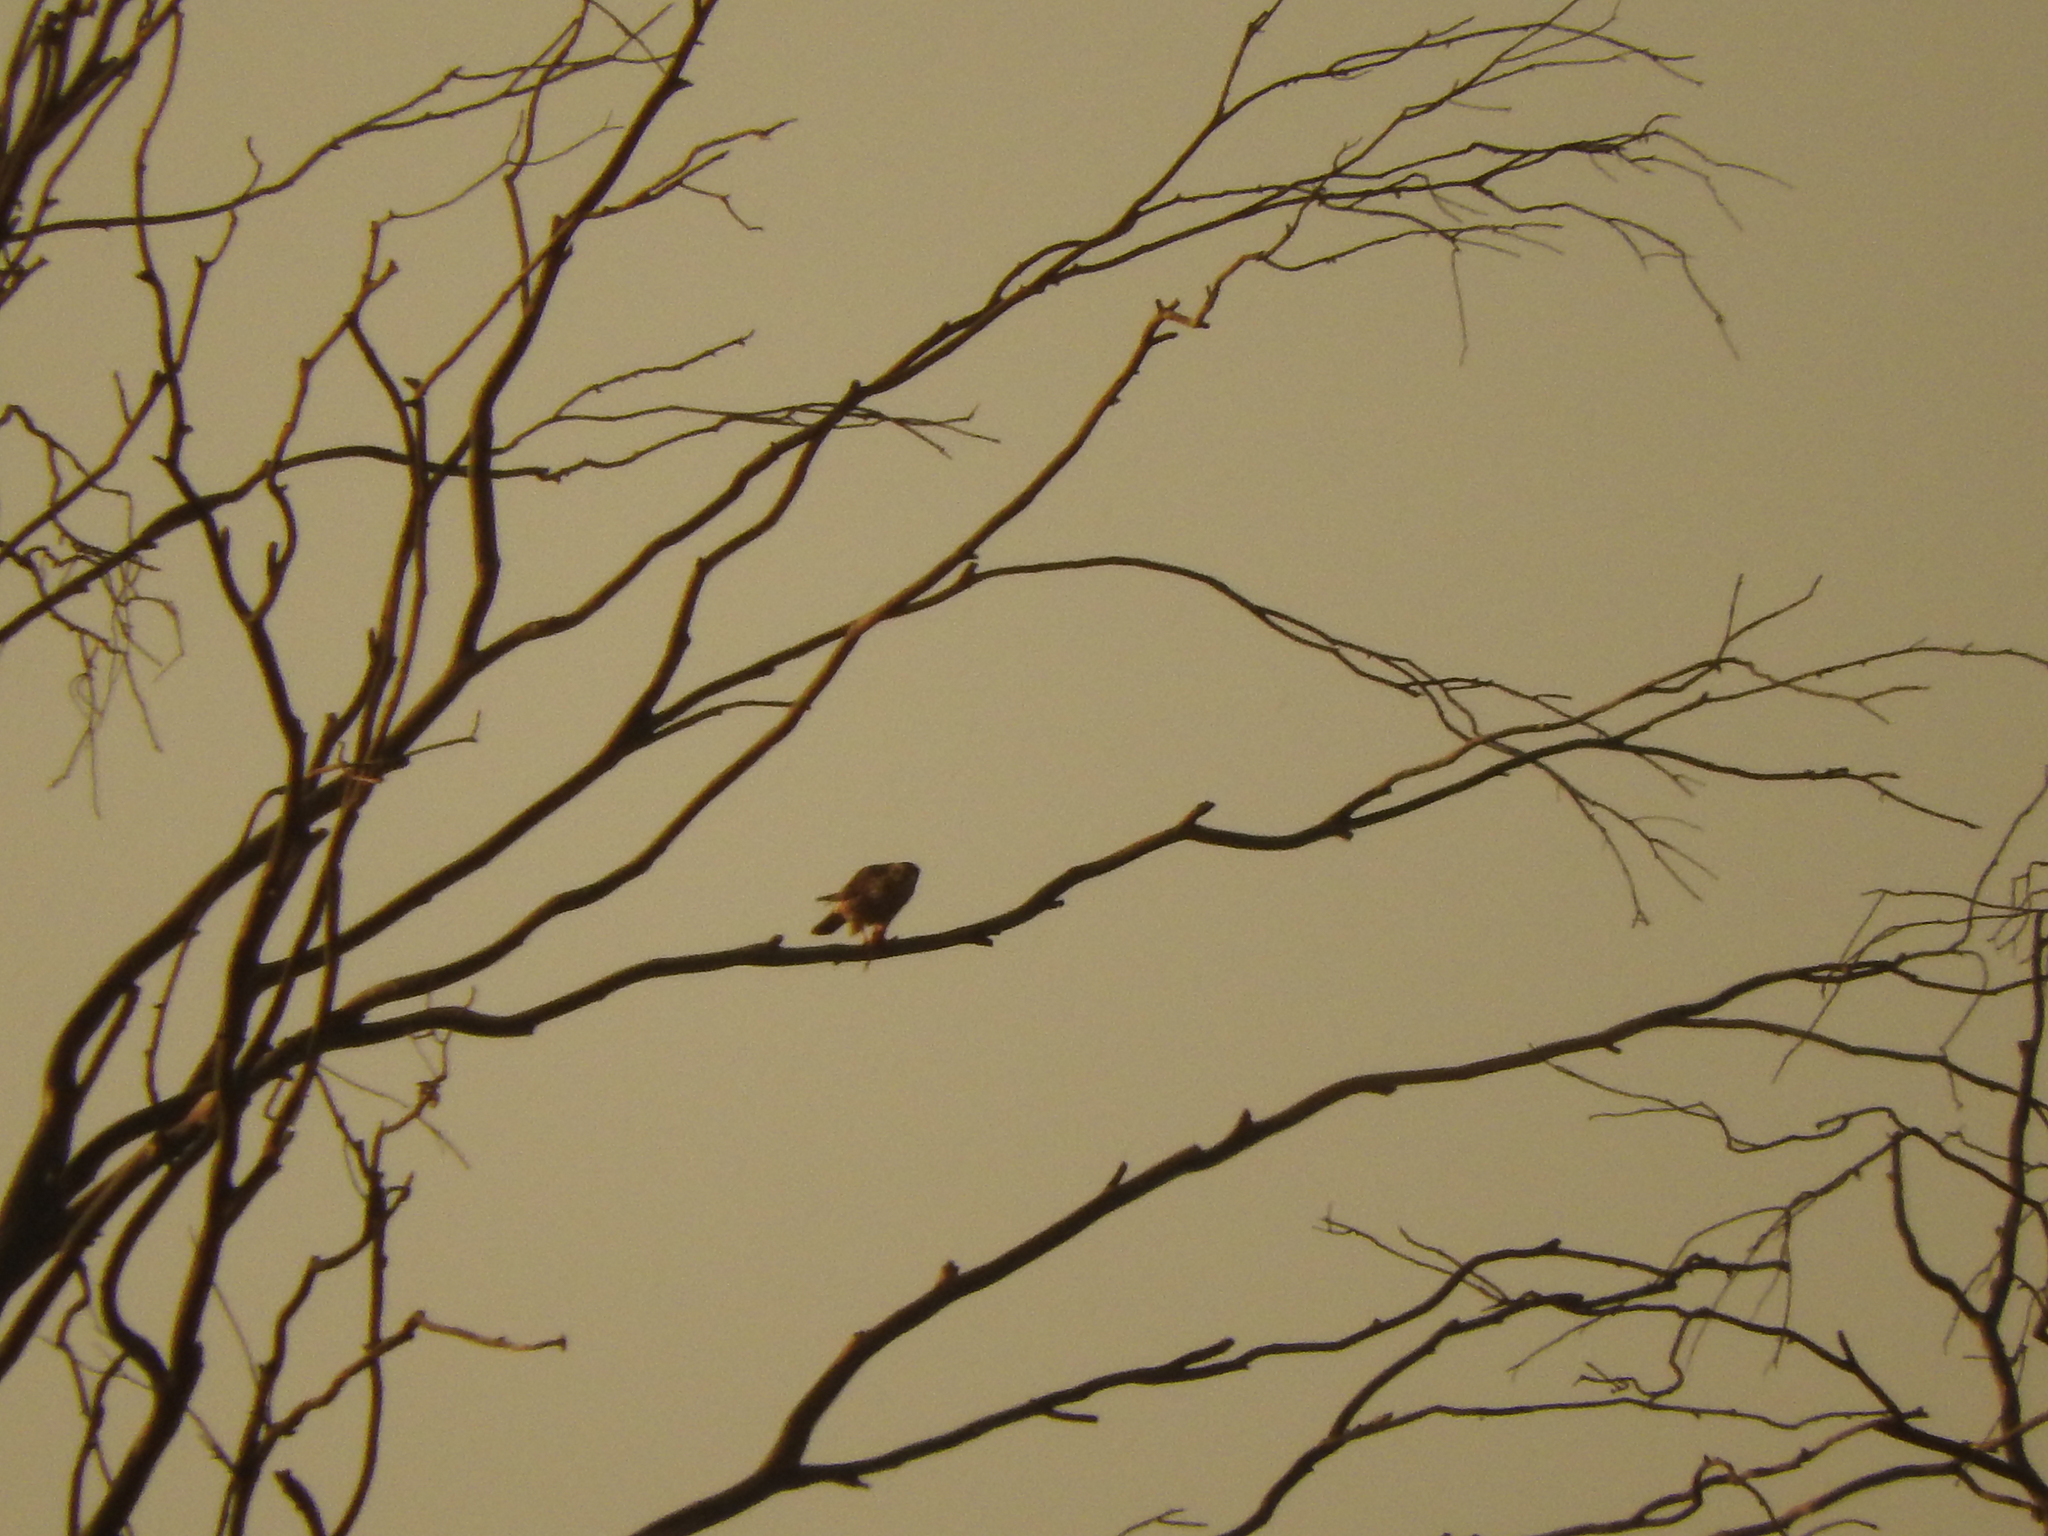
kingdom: Animalia
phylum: Chordata
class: Aves
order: Falconiformes
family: Falconidae
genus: Falco
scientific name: Falco columbarius
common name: Merlin
